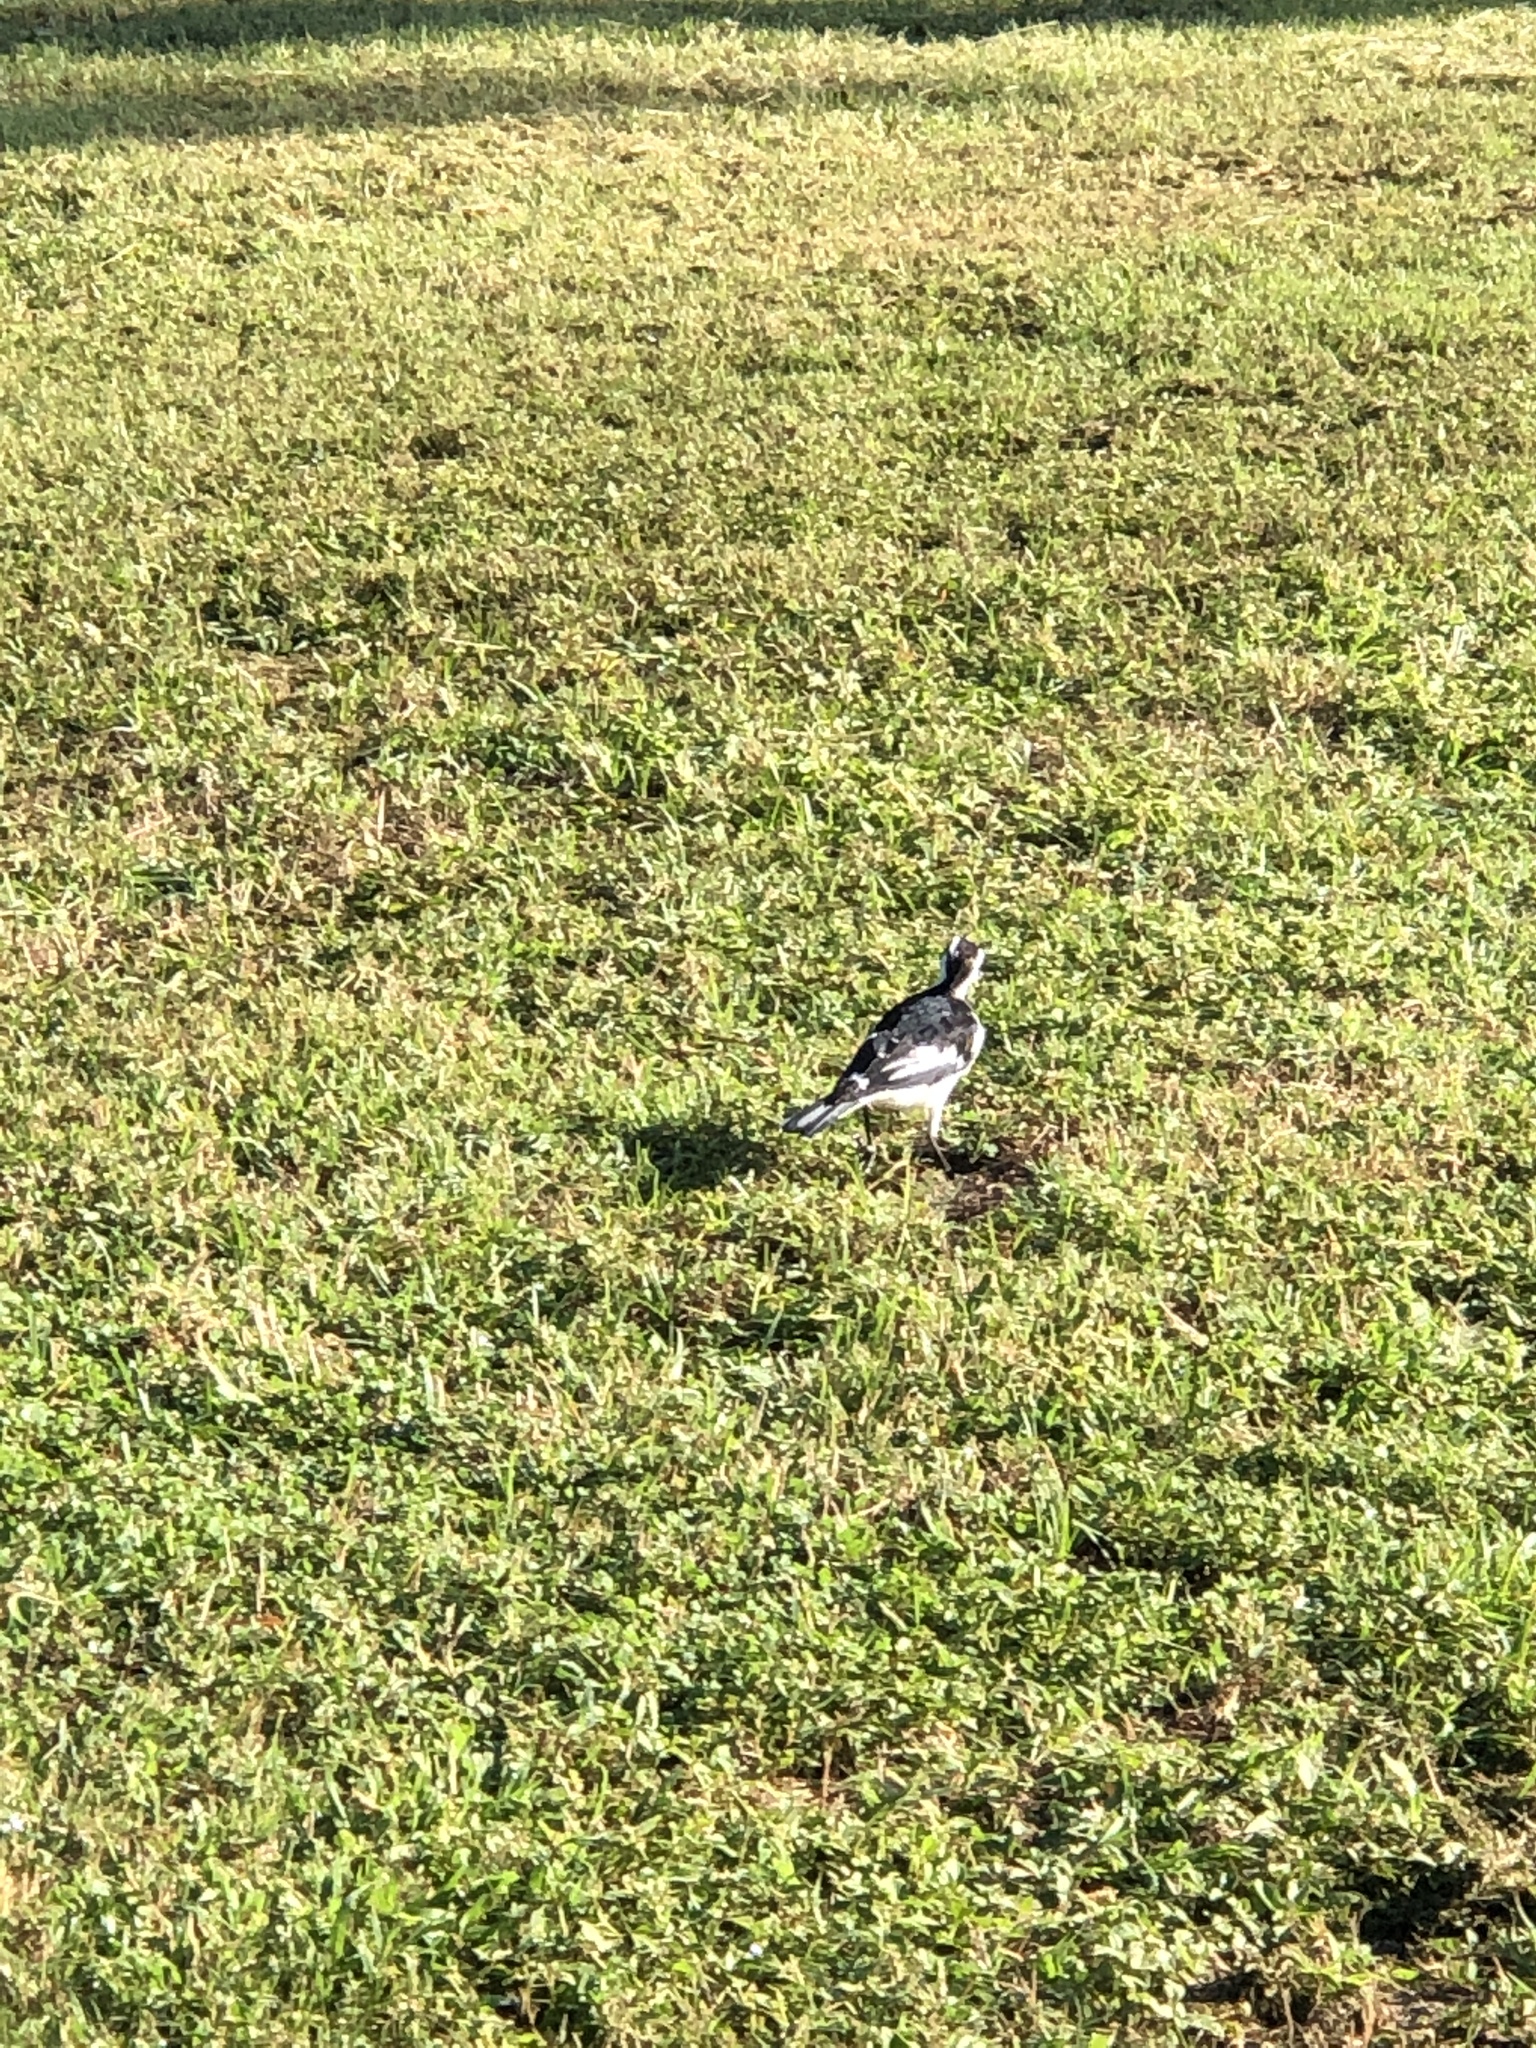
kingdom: Animalia
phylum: Chordata
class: Aves
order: Passeriformes
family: Monarchidae
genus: Grallina
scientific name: Grallina cyanoleuca
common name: Magpie-lark
